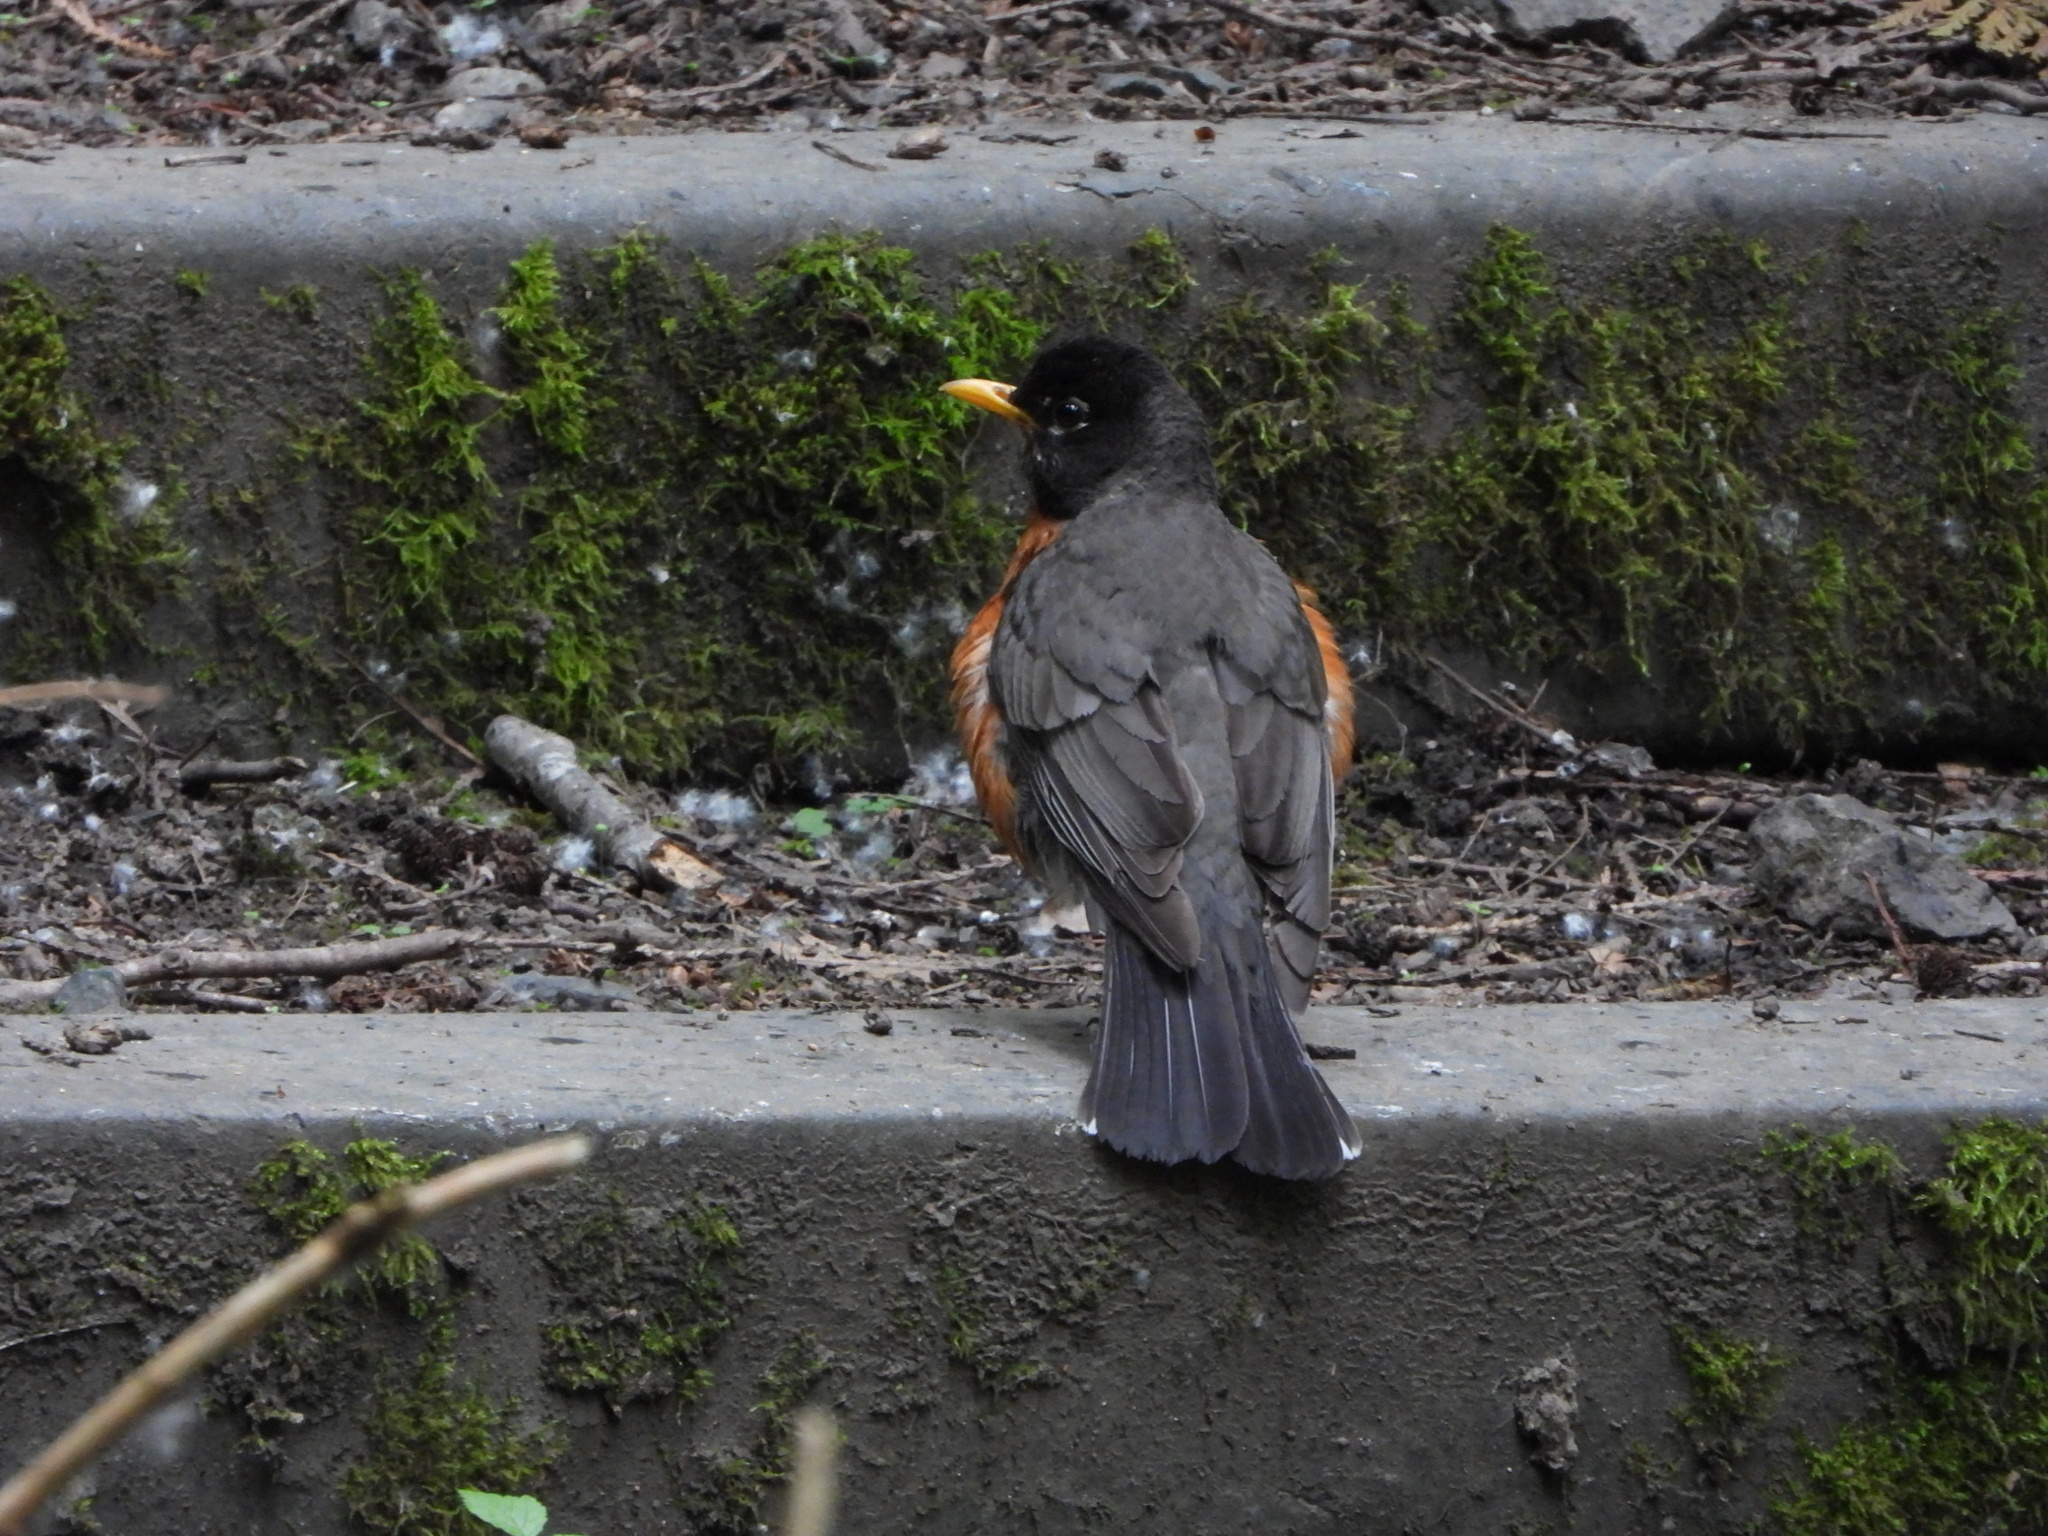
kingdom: Animalia
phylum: Chordata
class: Aves
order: Passeriformes
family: Turdidae
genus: Turdus
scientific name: Turdus migratorius
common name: American robin
